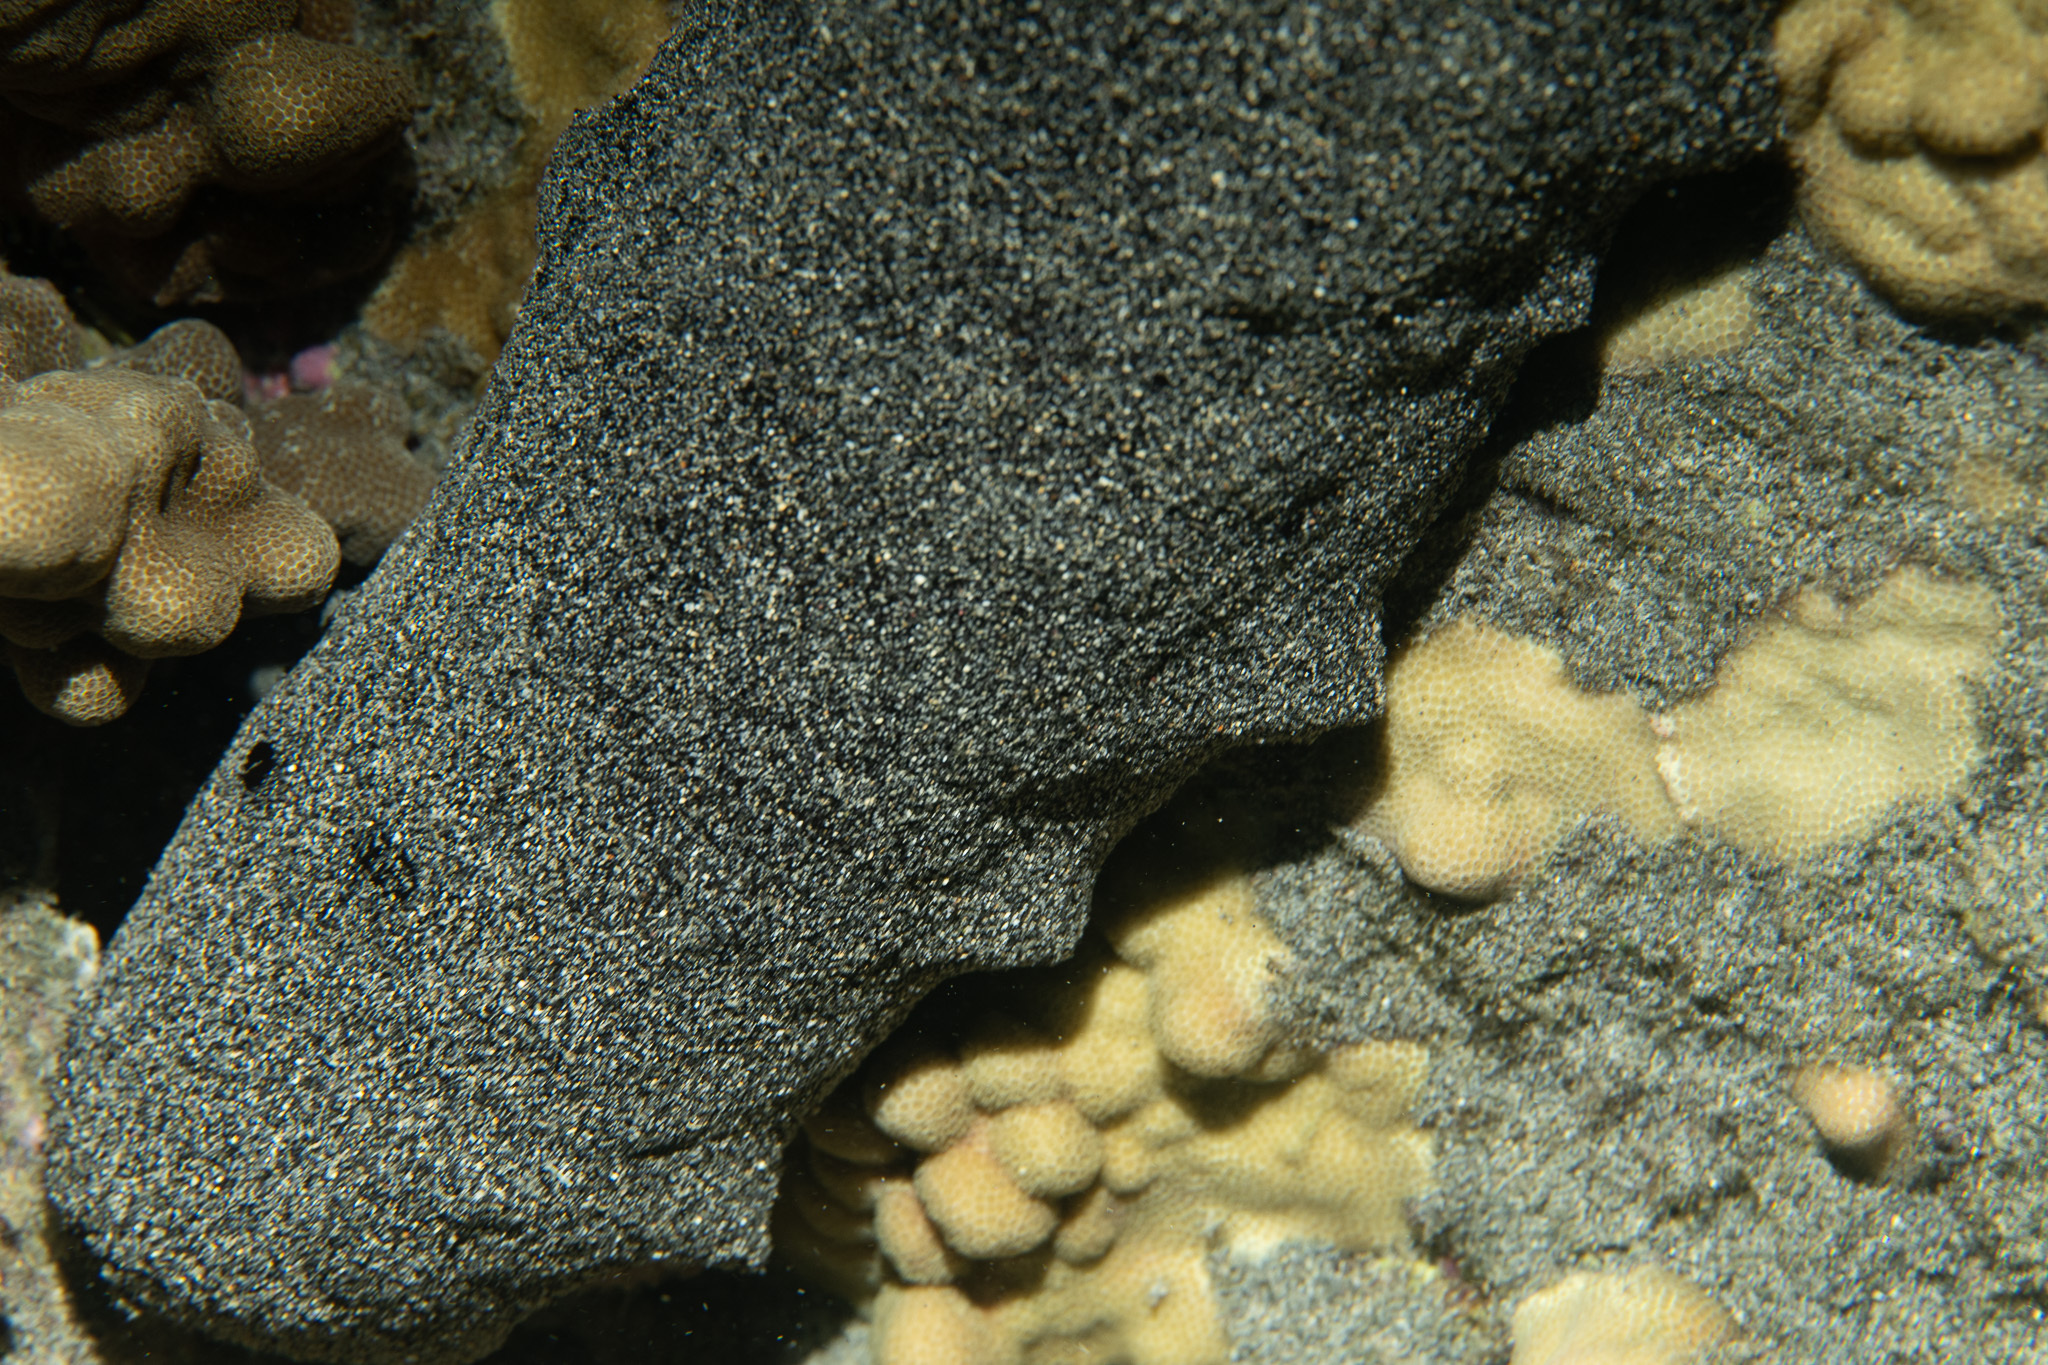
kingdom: Animalia
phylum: Echinodermata
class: Holothuroidea
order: Holothuriida
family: Holothuriidae
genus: Holothuria
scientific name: Holothuria whitmaei
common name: Black teatfish
